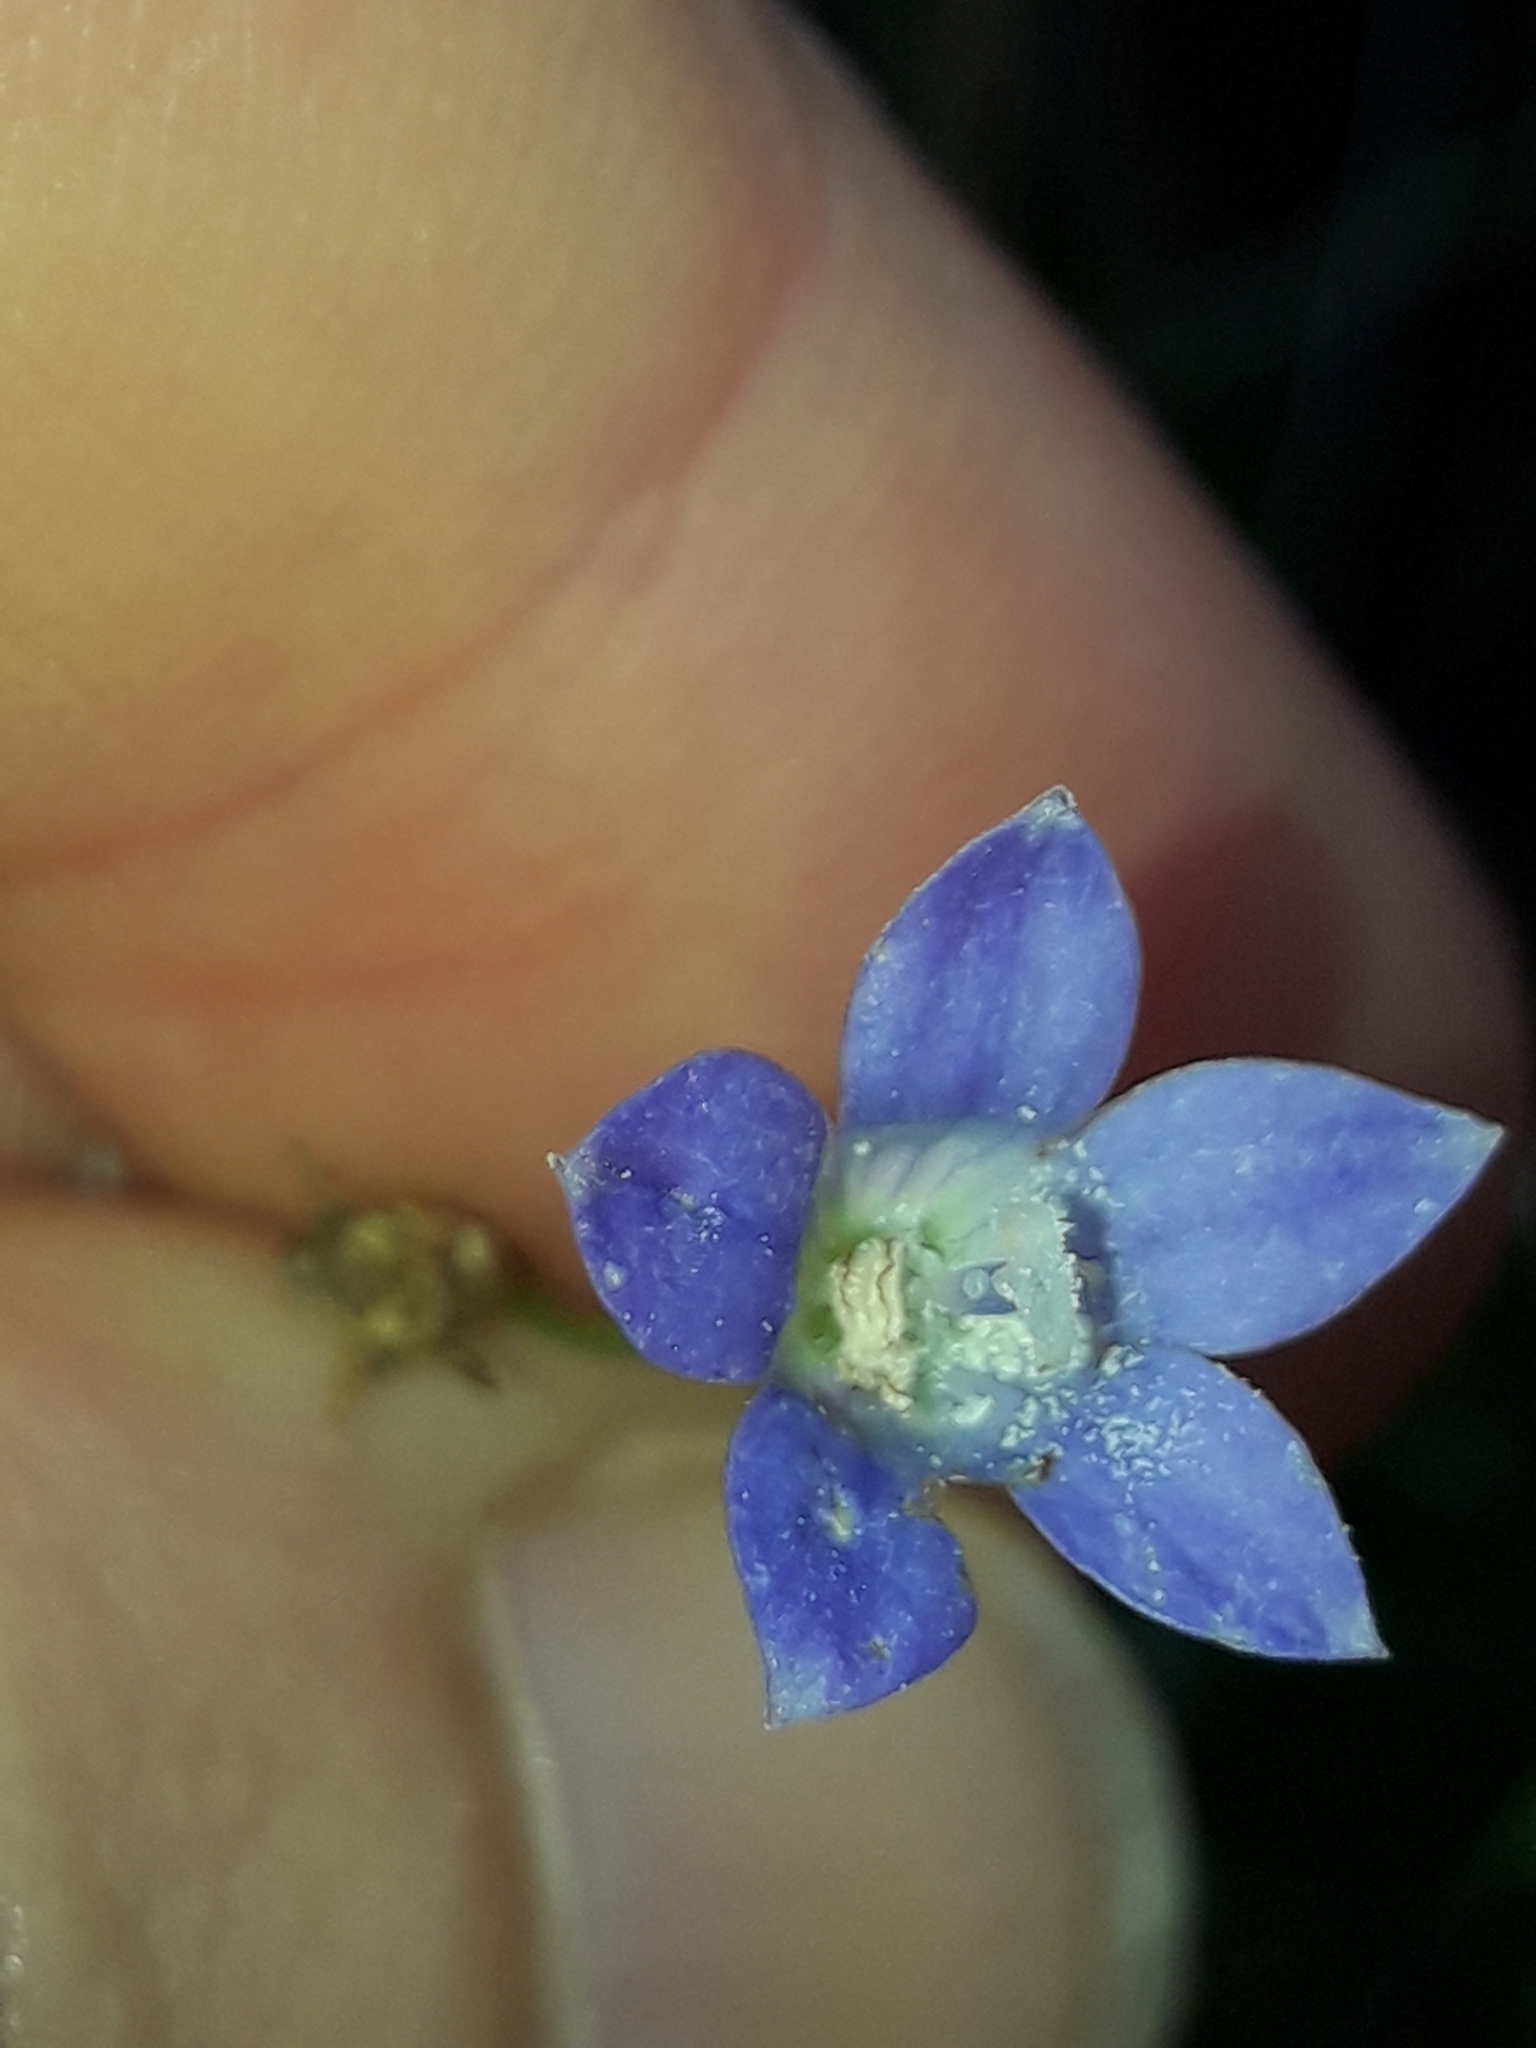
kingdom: Plantae
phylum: Tracheophyta
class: Magnoliopsida
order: Asterales
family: Campanulaceae
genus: Wahlenbergia
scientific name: Wahlenbergia violacea
